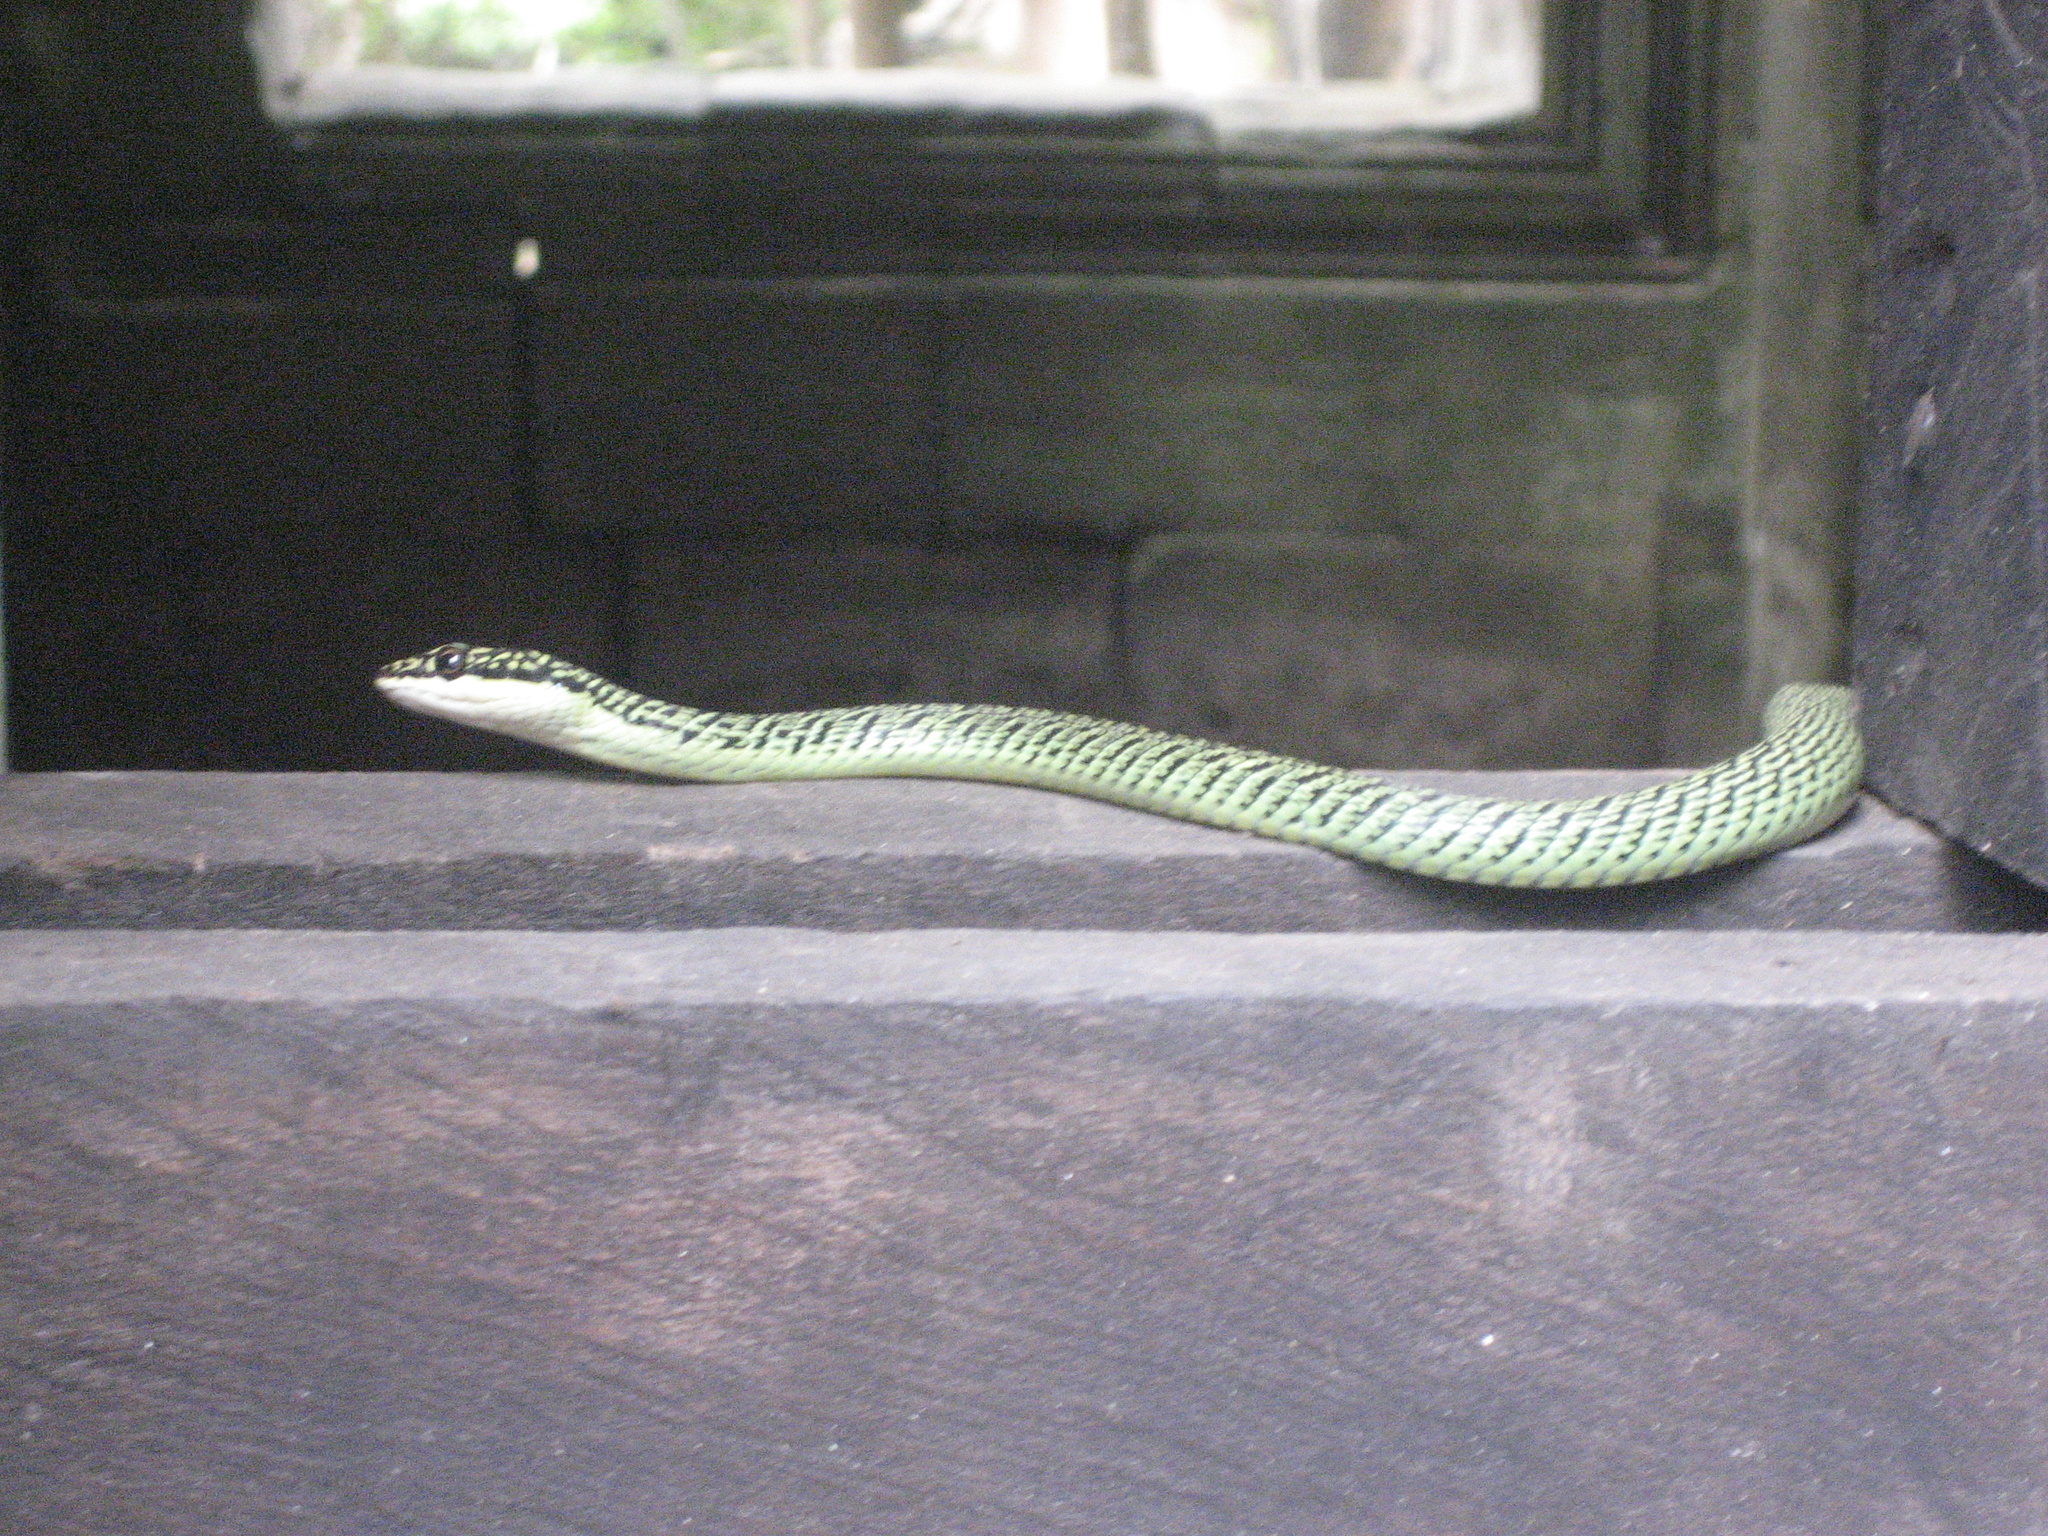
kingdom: Animalia
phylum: Chordata
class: Squamata
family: Colubridae
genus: Chrysopelea
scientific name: Chrysopelea ornata
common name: Golden flying snake
